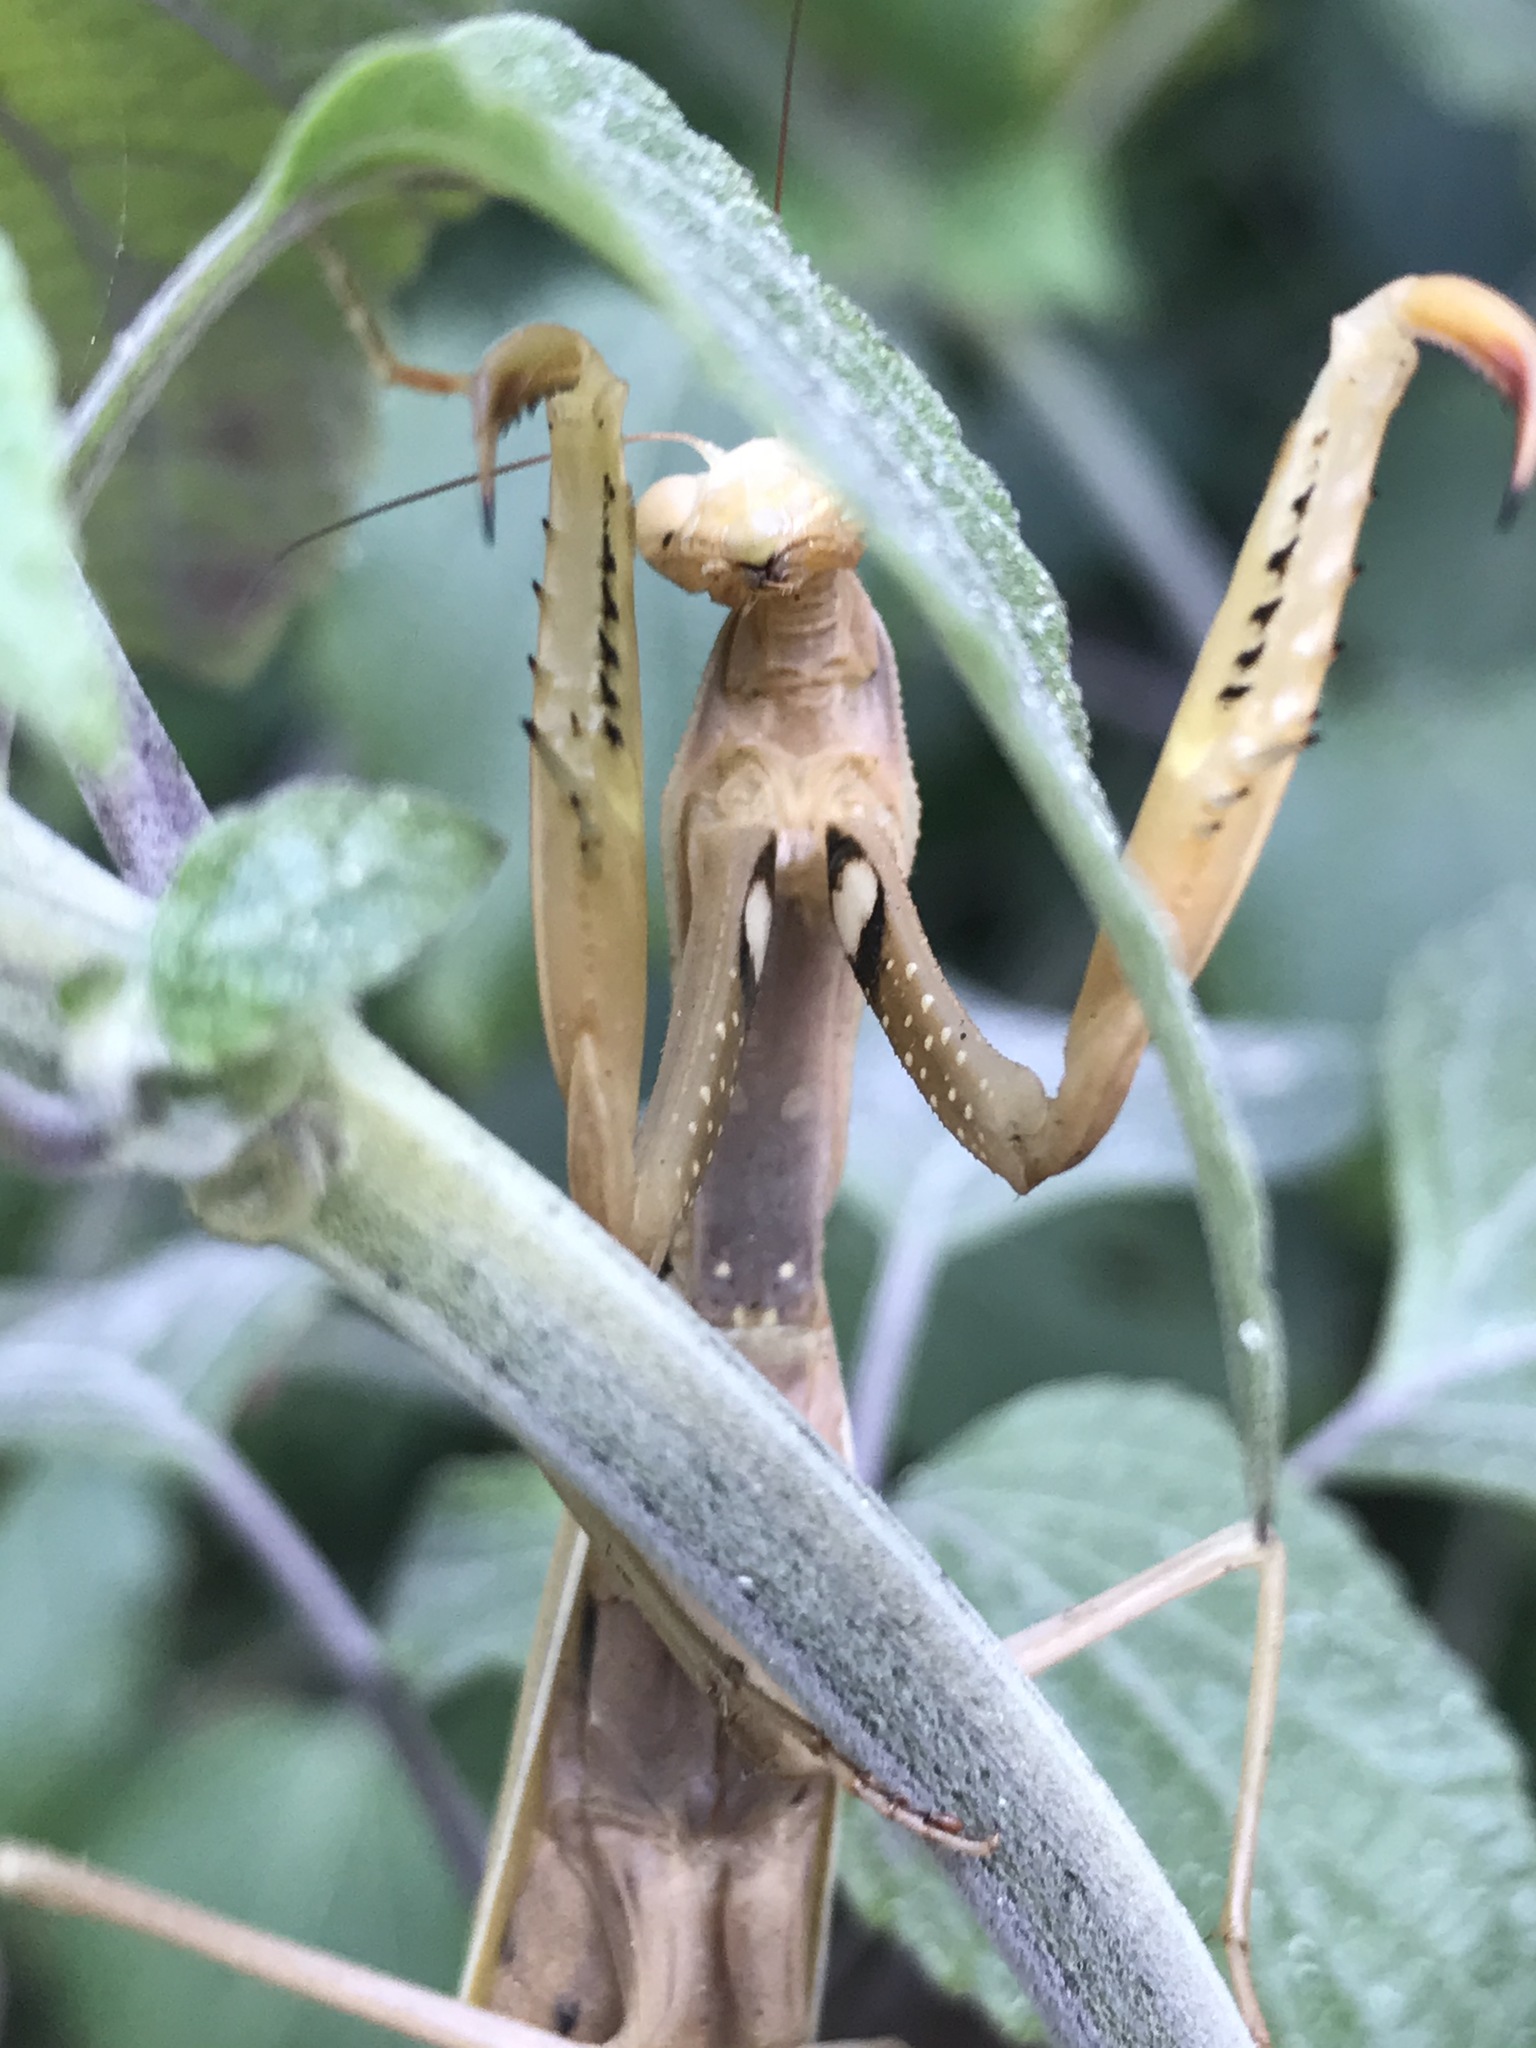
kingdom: Animalia
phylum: Arthropoda
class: Insecta
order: Mantodea
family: Mantidae
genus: Mantis
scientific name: Mantis religiosa
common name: Praying mantis
